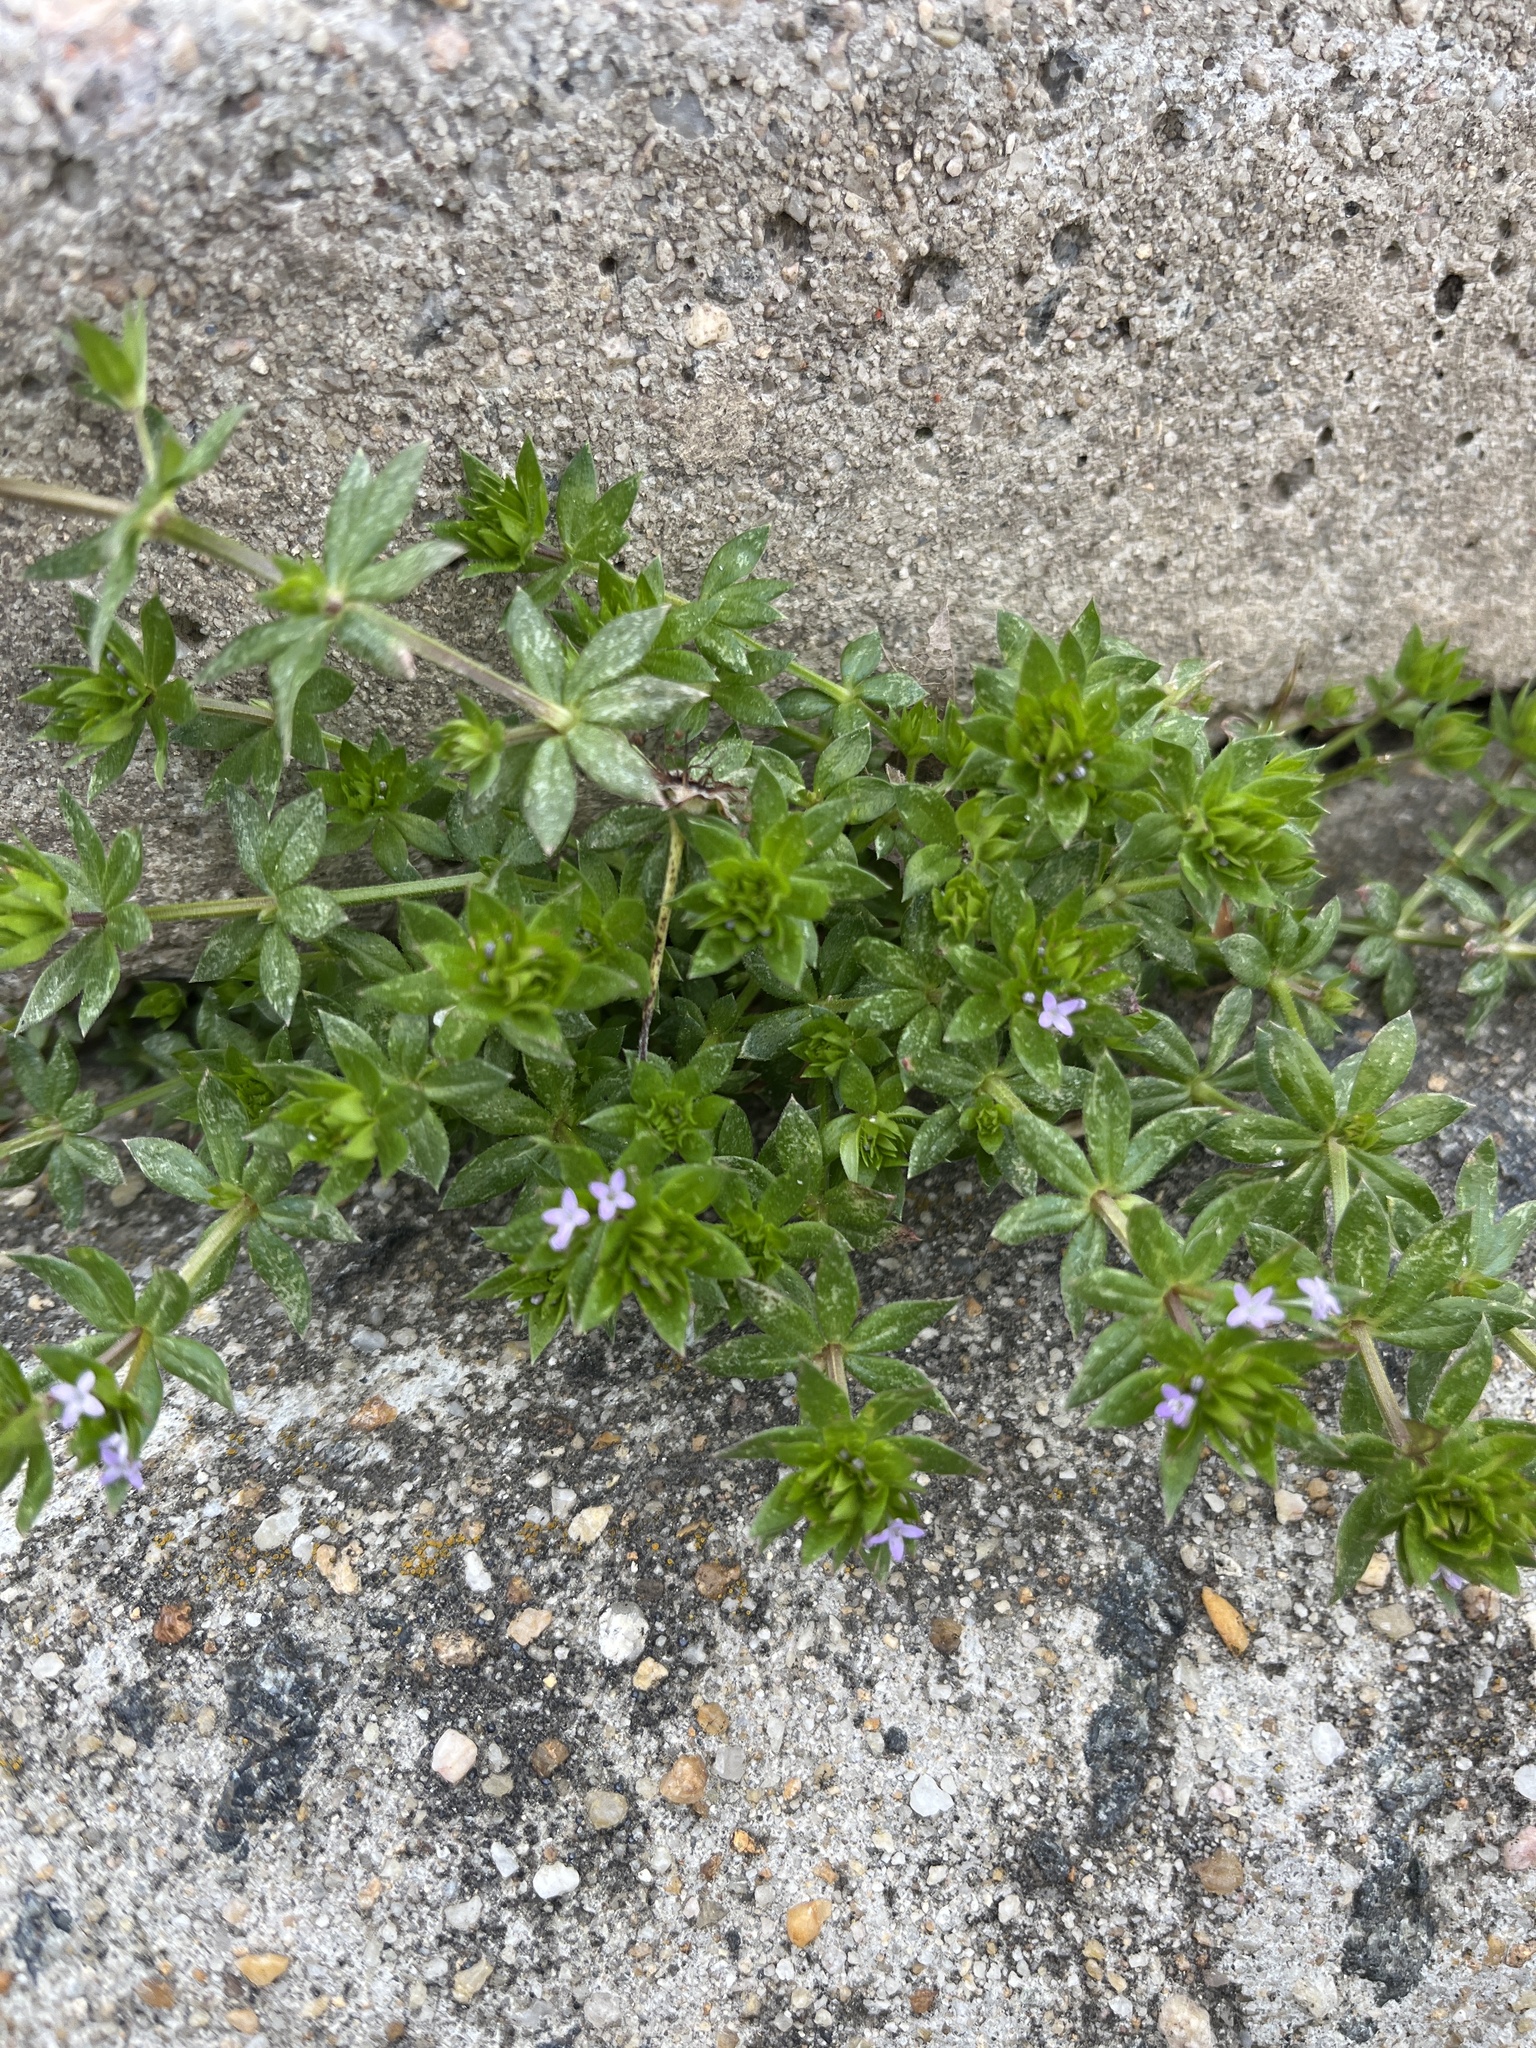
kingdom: Plantae
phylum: Tracheophyta
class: Magnoliopsida
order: Gentianales
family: Rubiaceae
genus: Sherardia
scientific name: Sherardia arvensis
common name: Field madder
